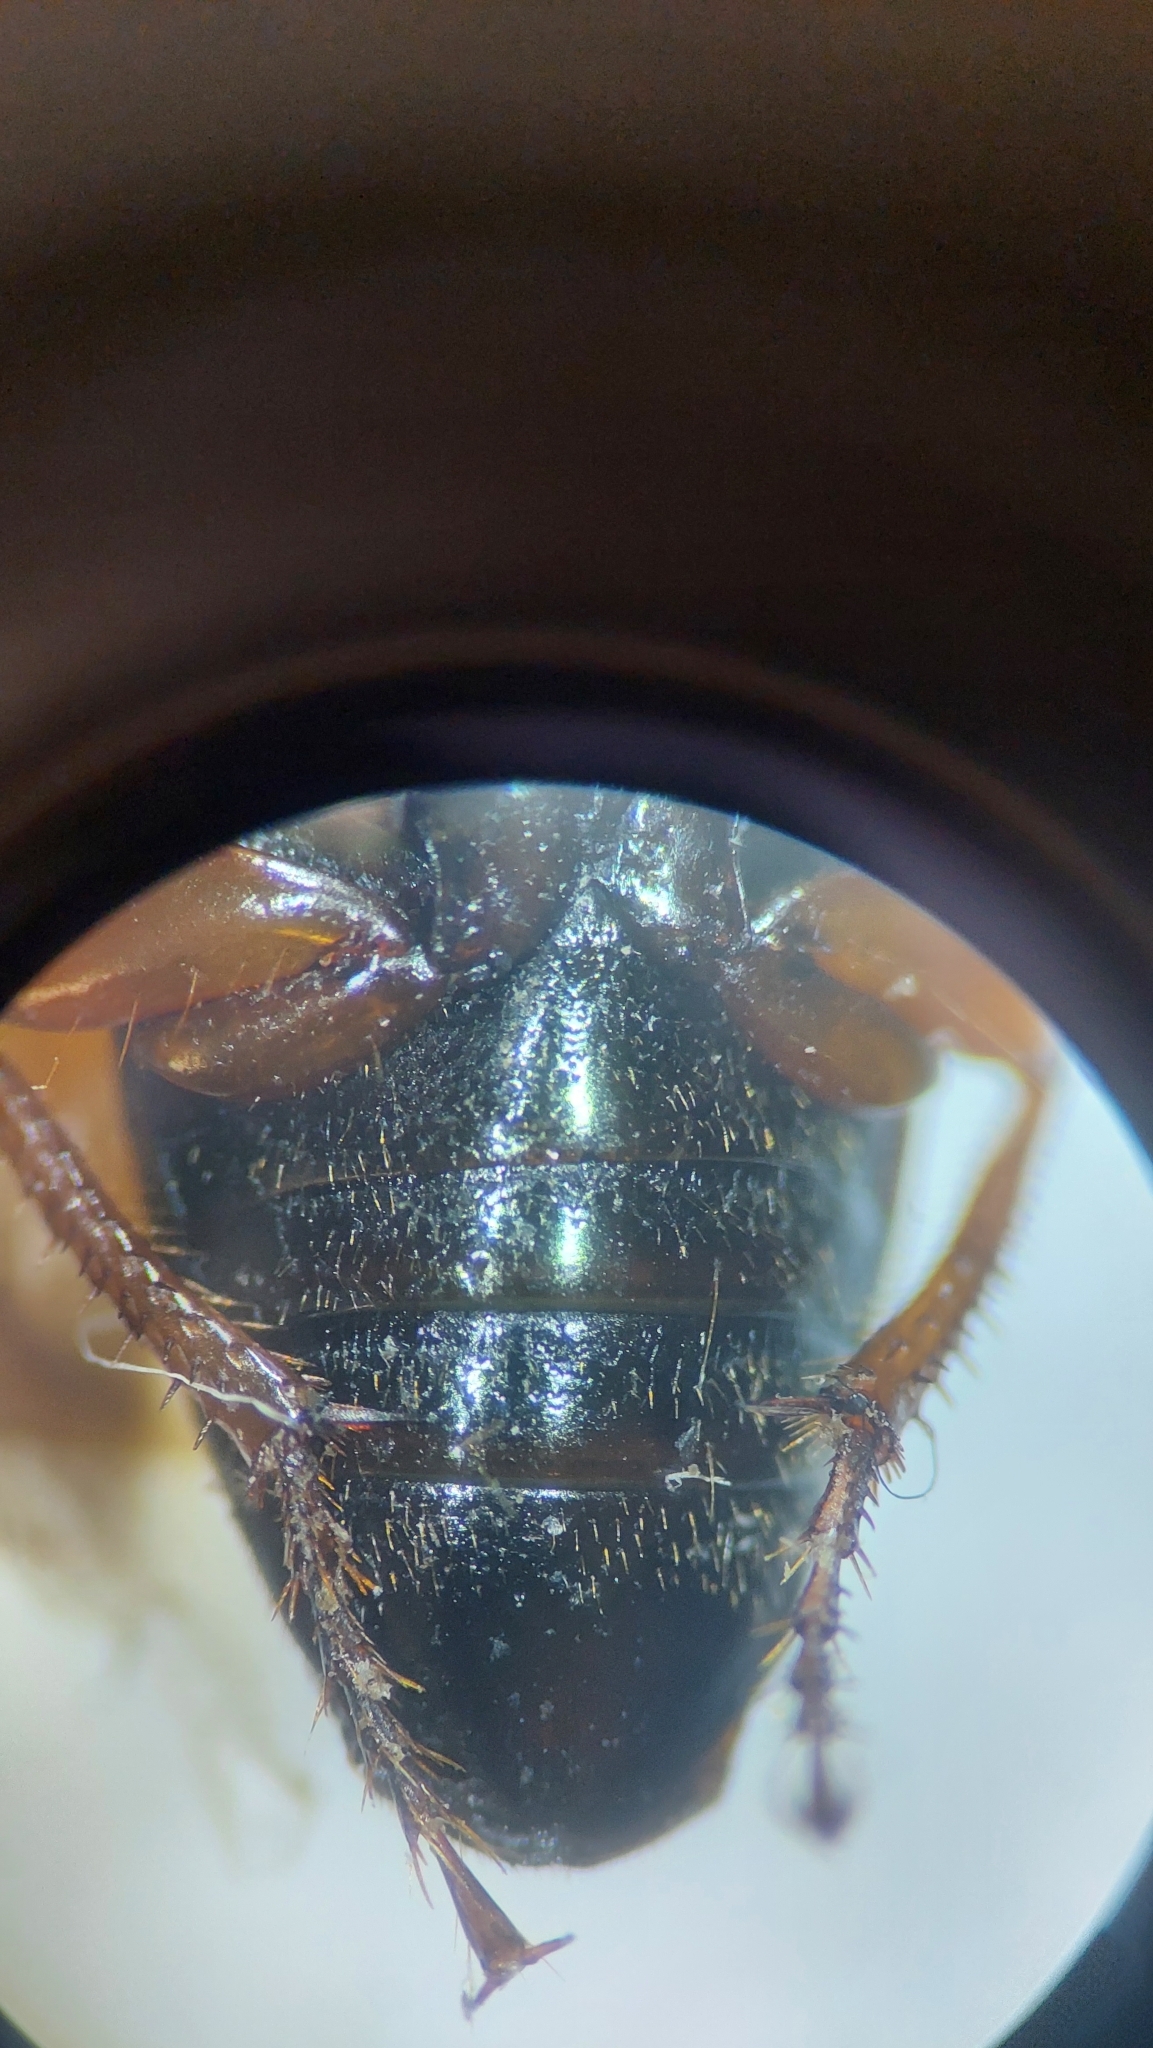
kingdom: Animalia
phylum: Arthropoda
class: Insecta
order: Coleoptera
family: Carabidae
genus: Harpalus
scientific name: Harpalus affinis
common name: Polychrome harp ground beetle
